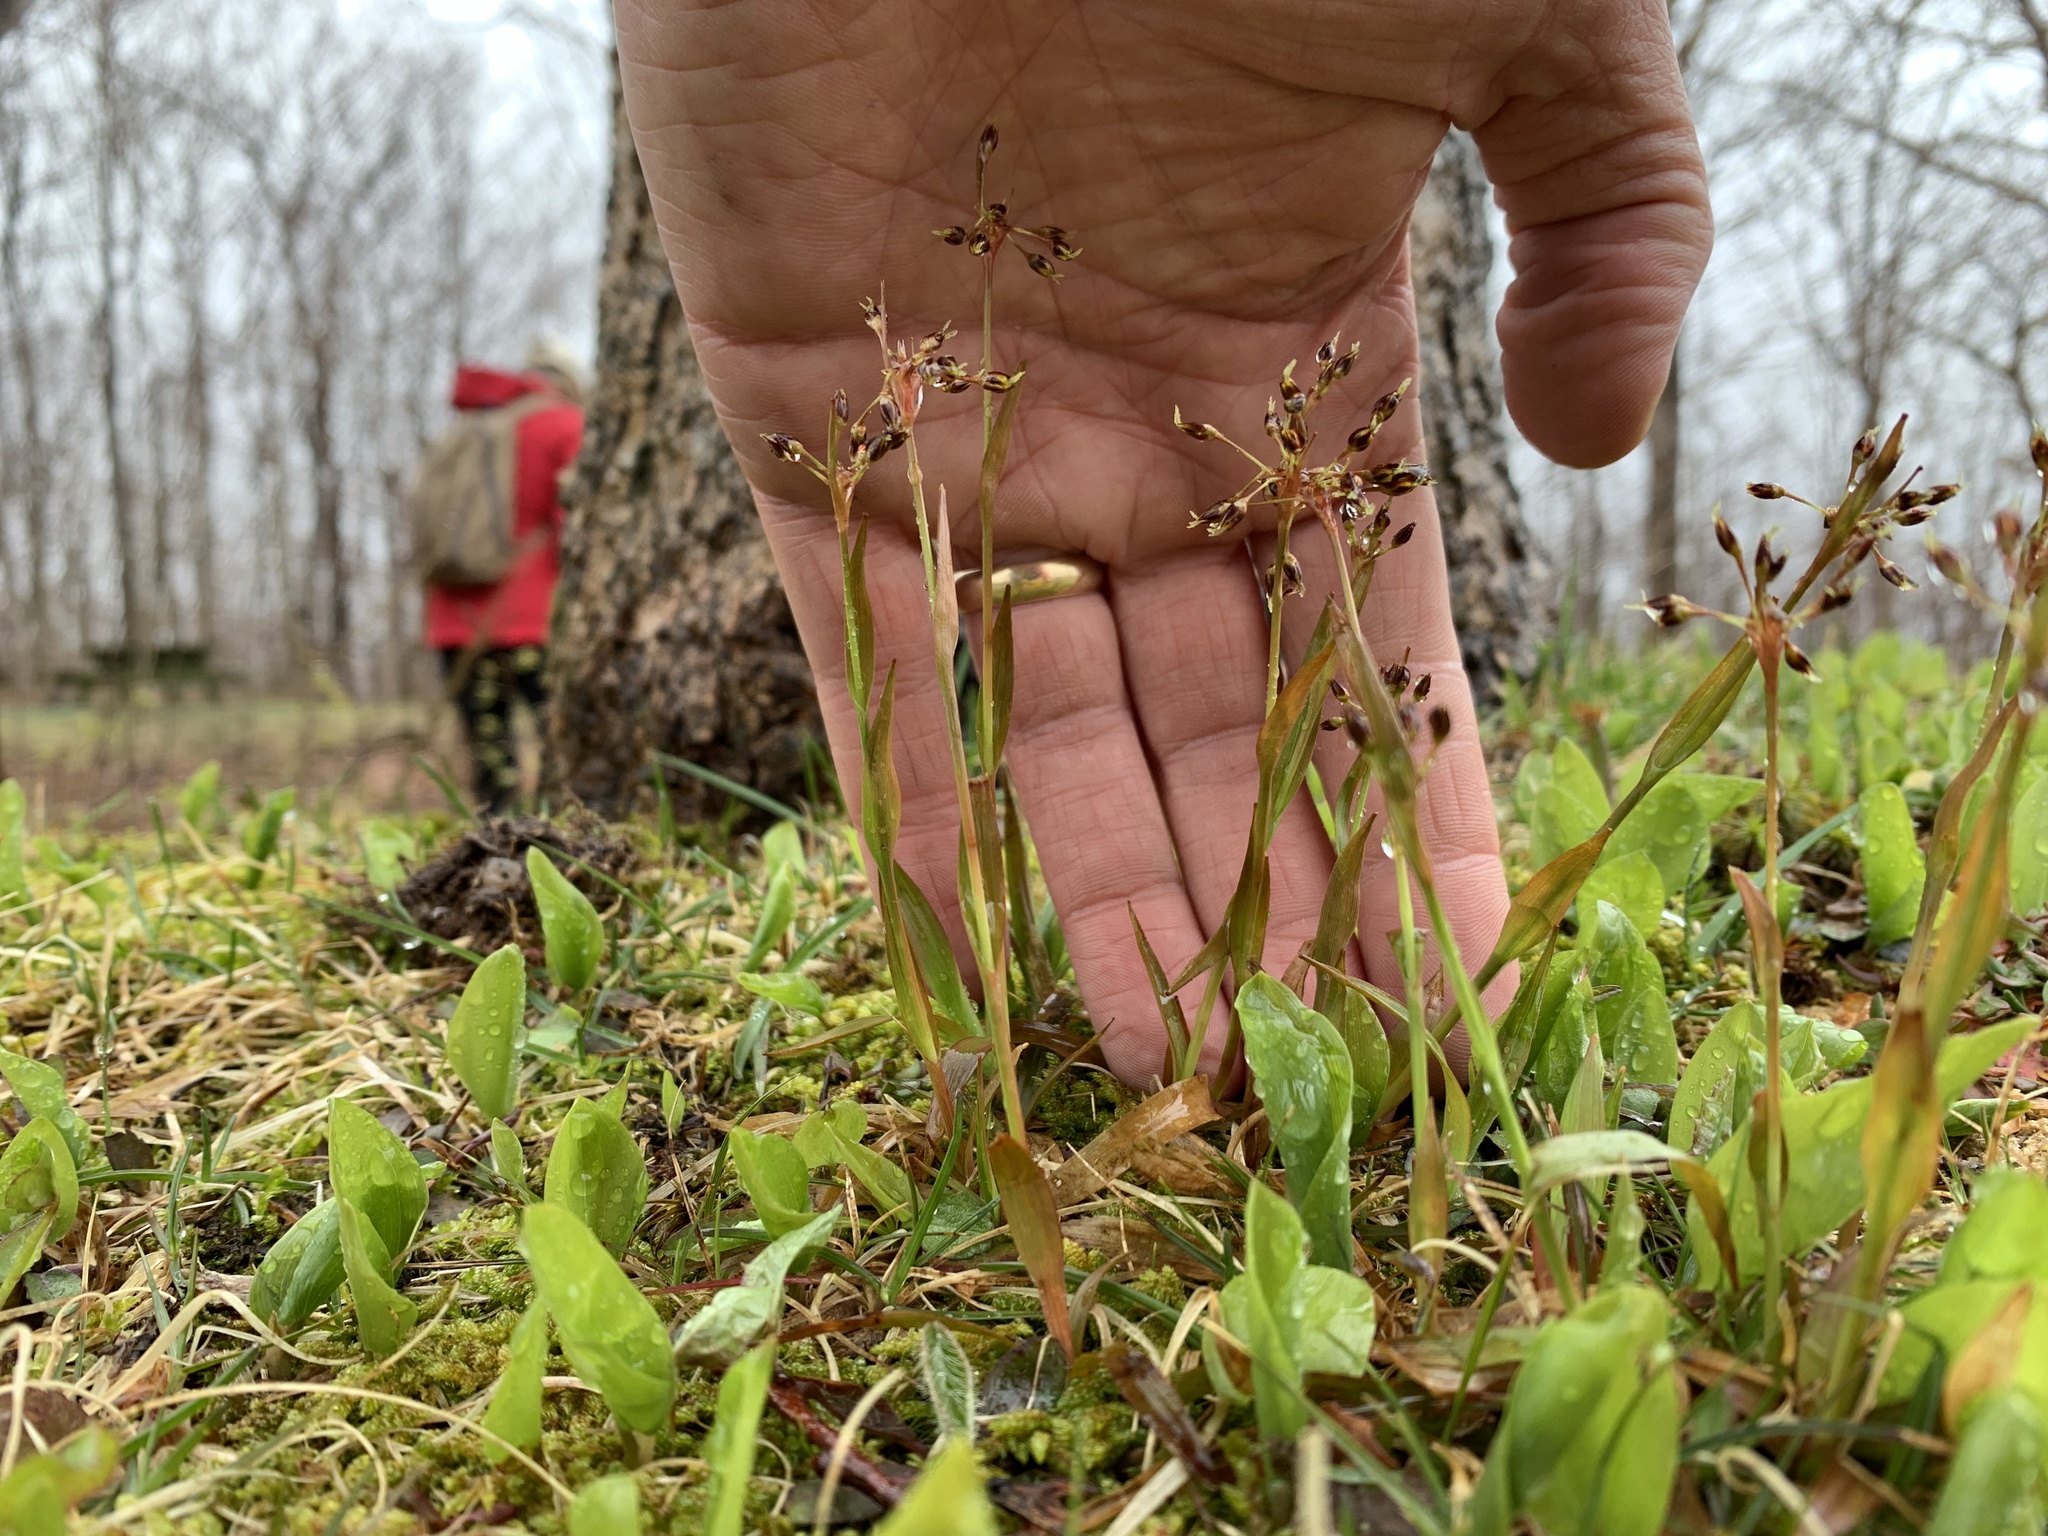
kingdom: Plantae
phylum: Tracheophyta
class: Liliopsida
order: Poales
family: Juncaceae
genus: Luzula
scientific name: Luzula acuminata
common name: Hairy woodrush
